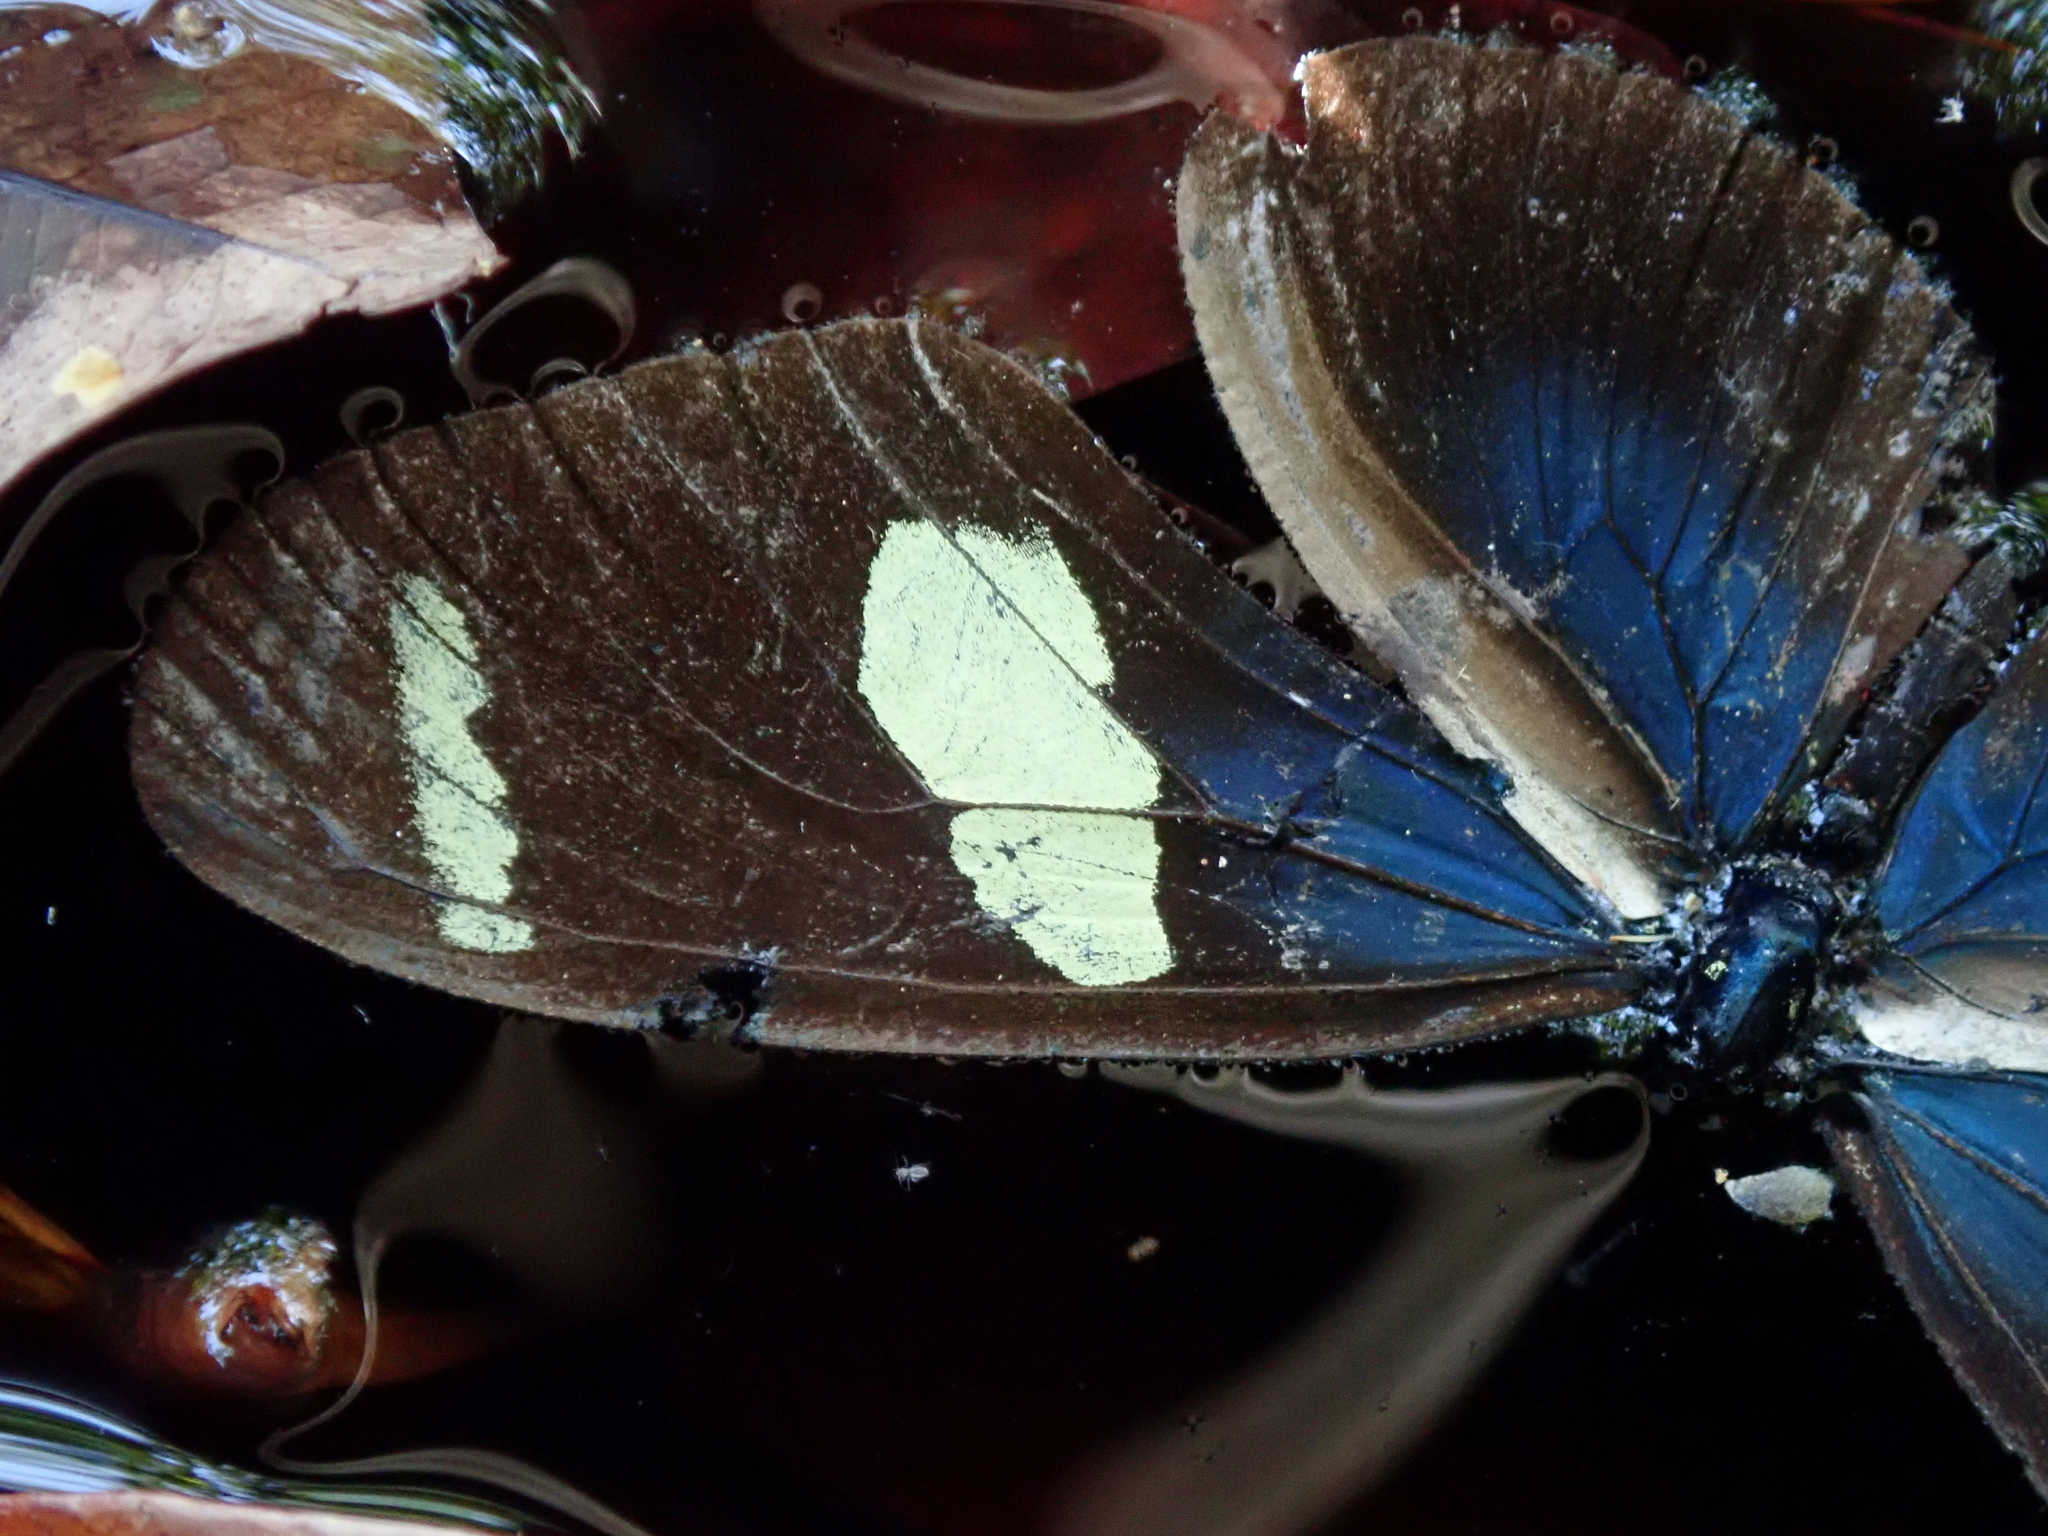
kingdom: Animalia
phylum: Arthropoda
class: Insecta
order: Lepidoptera
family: Nymphalidae
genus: Heliconius
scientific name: Heliconius sara
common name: Sara longwing
